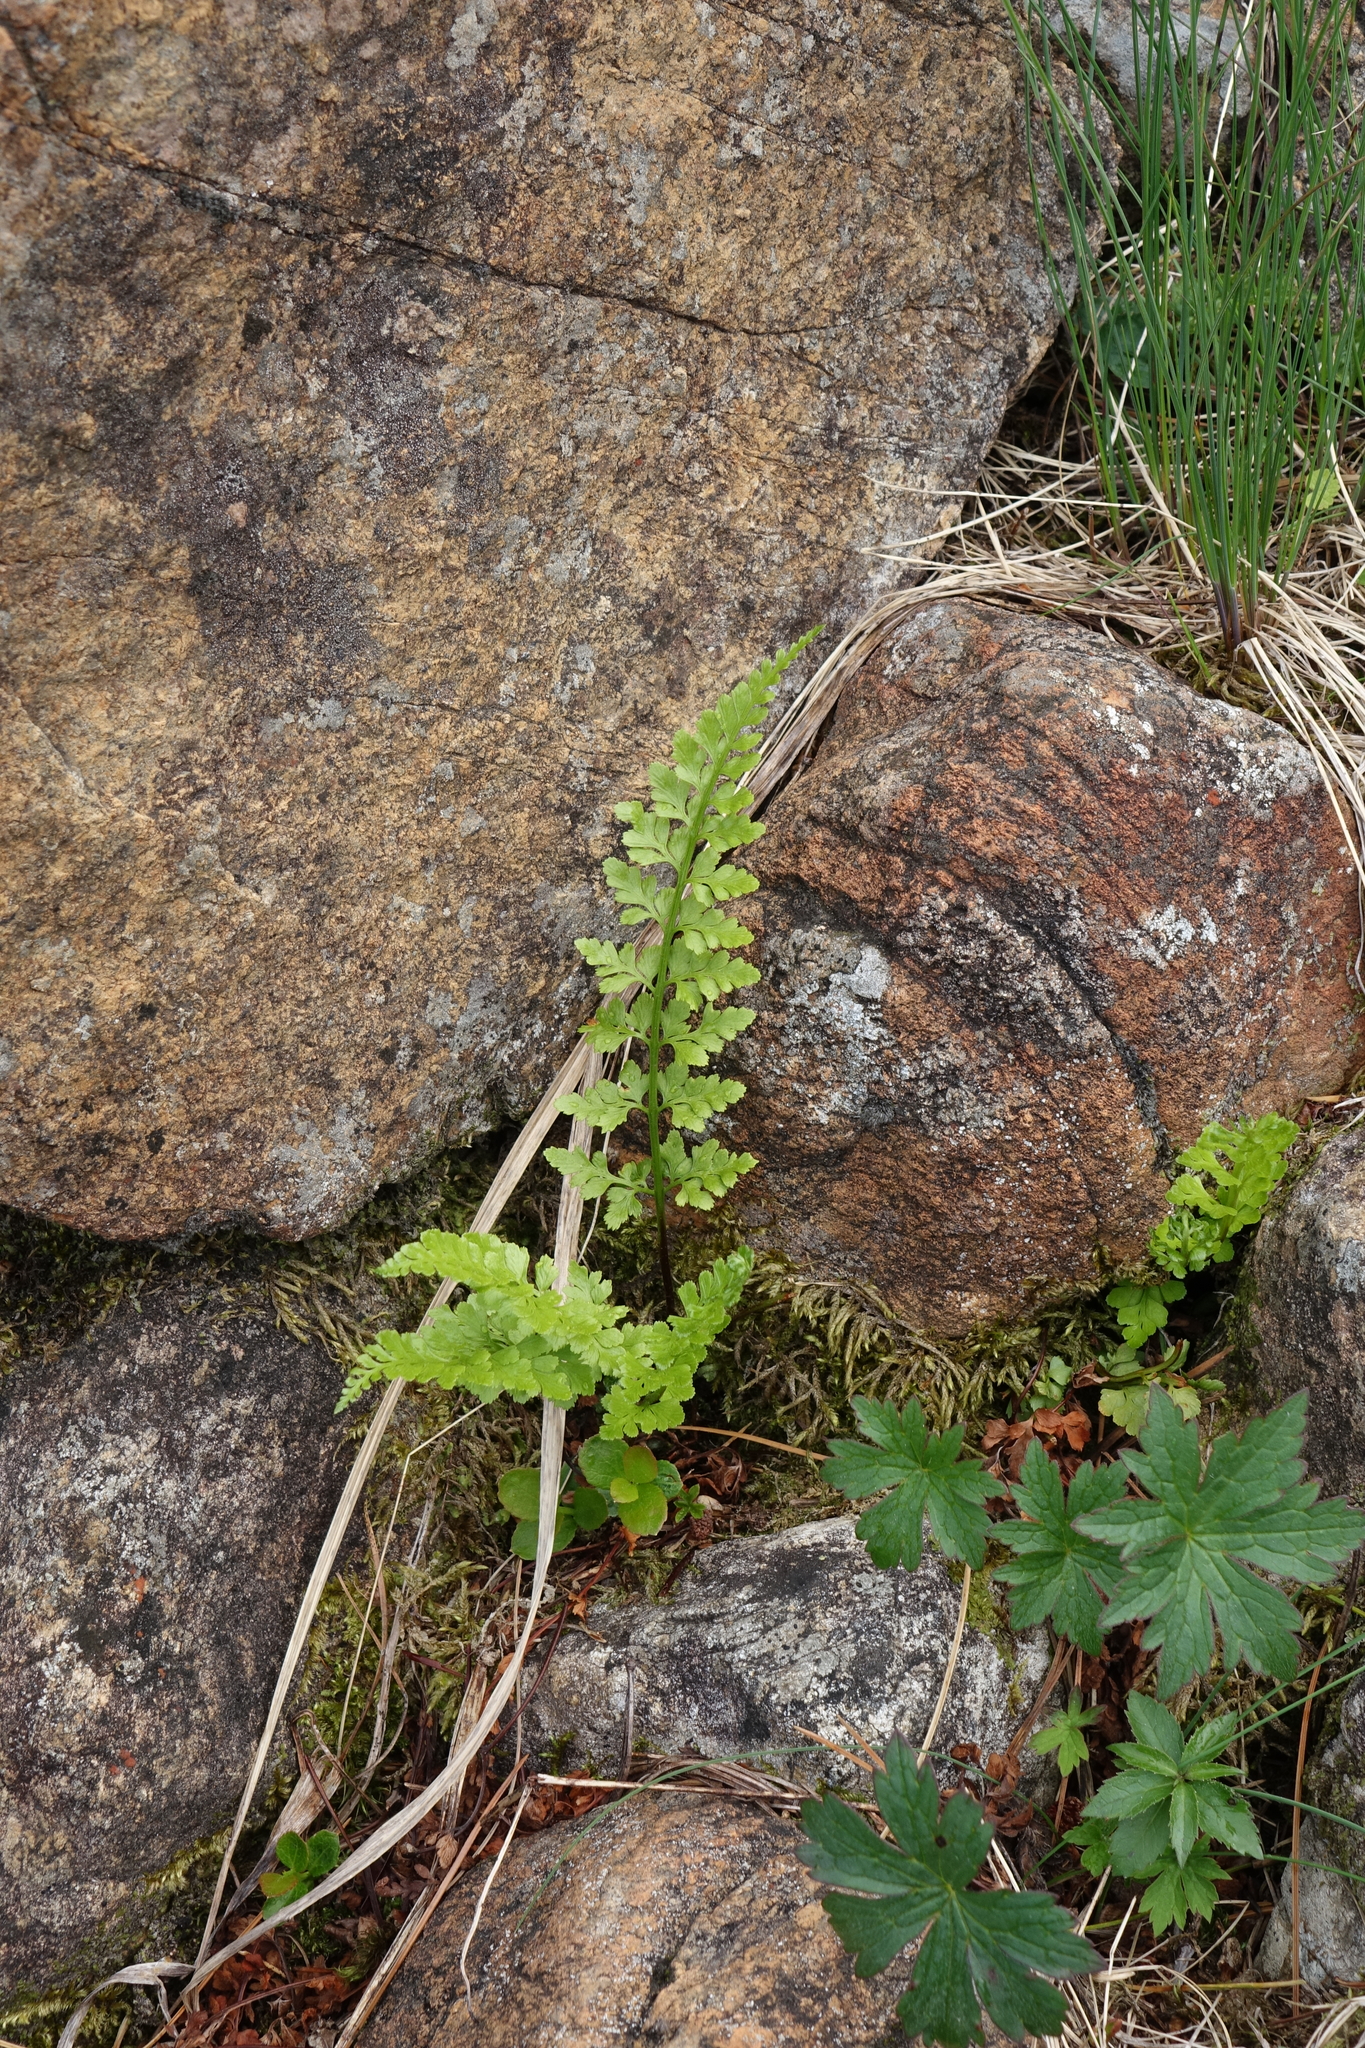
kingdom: Plantae
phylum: Tracheophyta
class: Polypodiopsida
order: Polypodiales
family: Aspleniaceae
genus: Asplenium
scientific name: Asplenium adiantum-nigrum
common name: Black spleenwort
